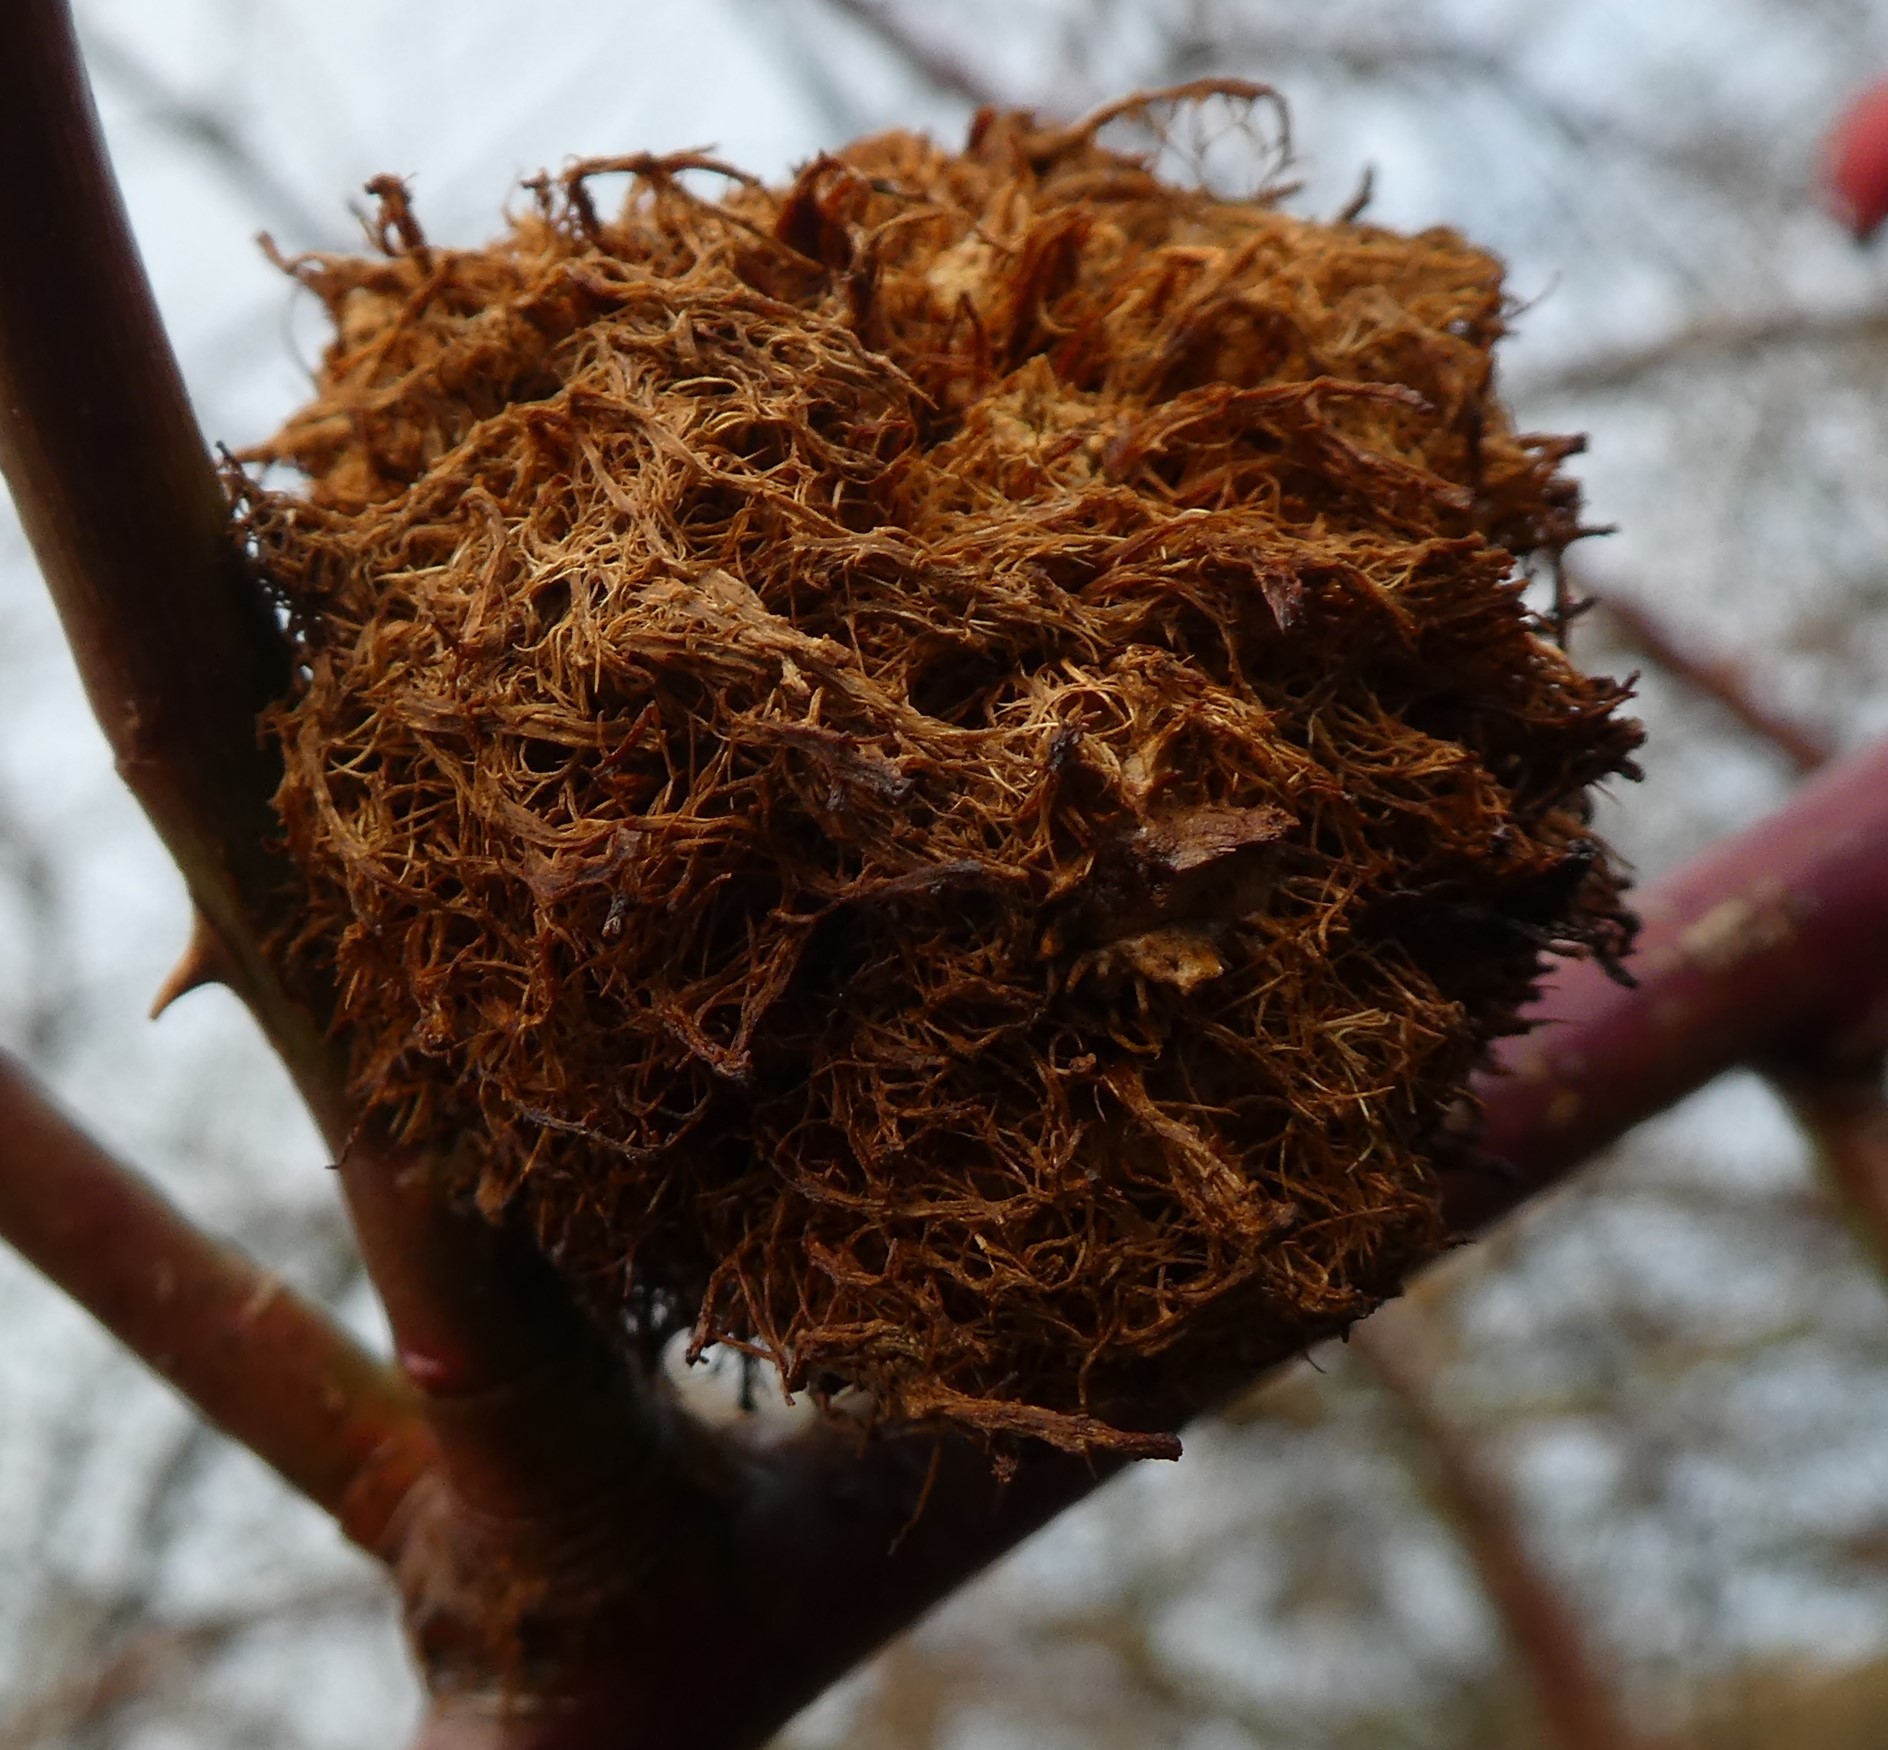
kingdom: Animalia
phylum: Arthropoda
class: Insecta
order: Hymenoptera
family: Cynipidae
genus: Diplolepis
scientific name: Diplolepis rosae
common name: Bedeguar gall
